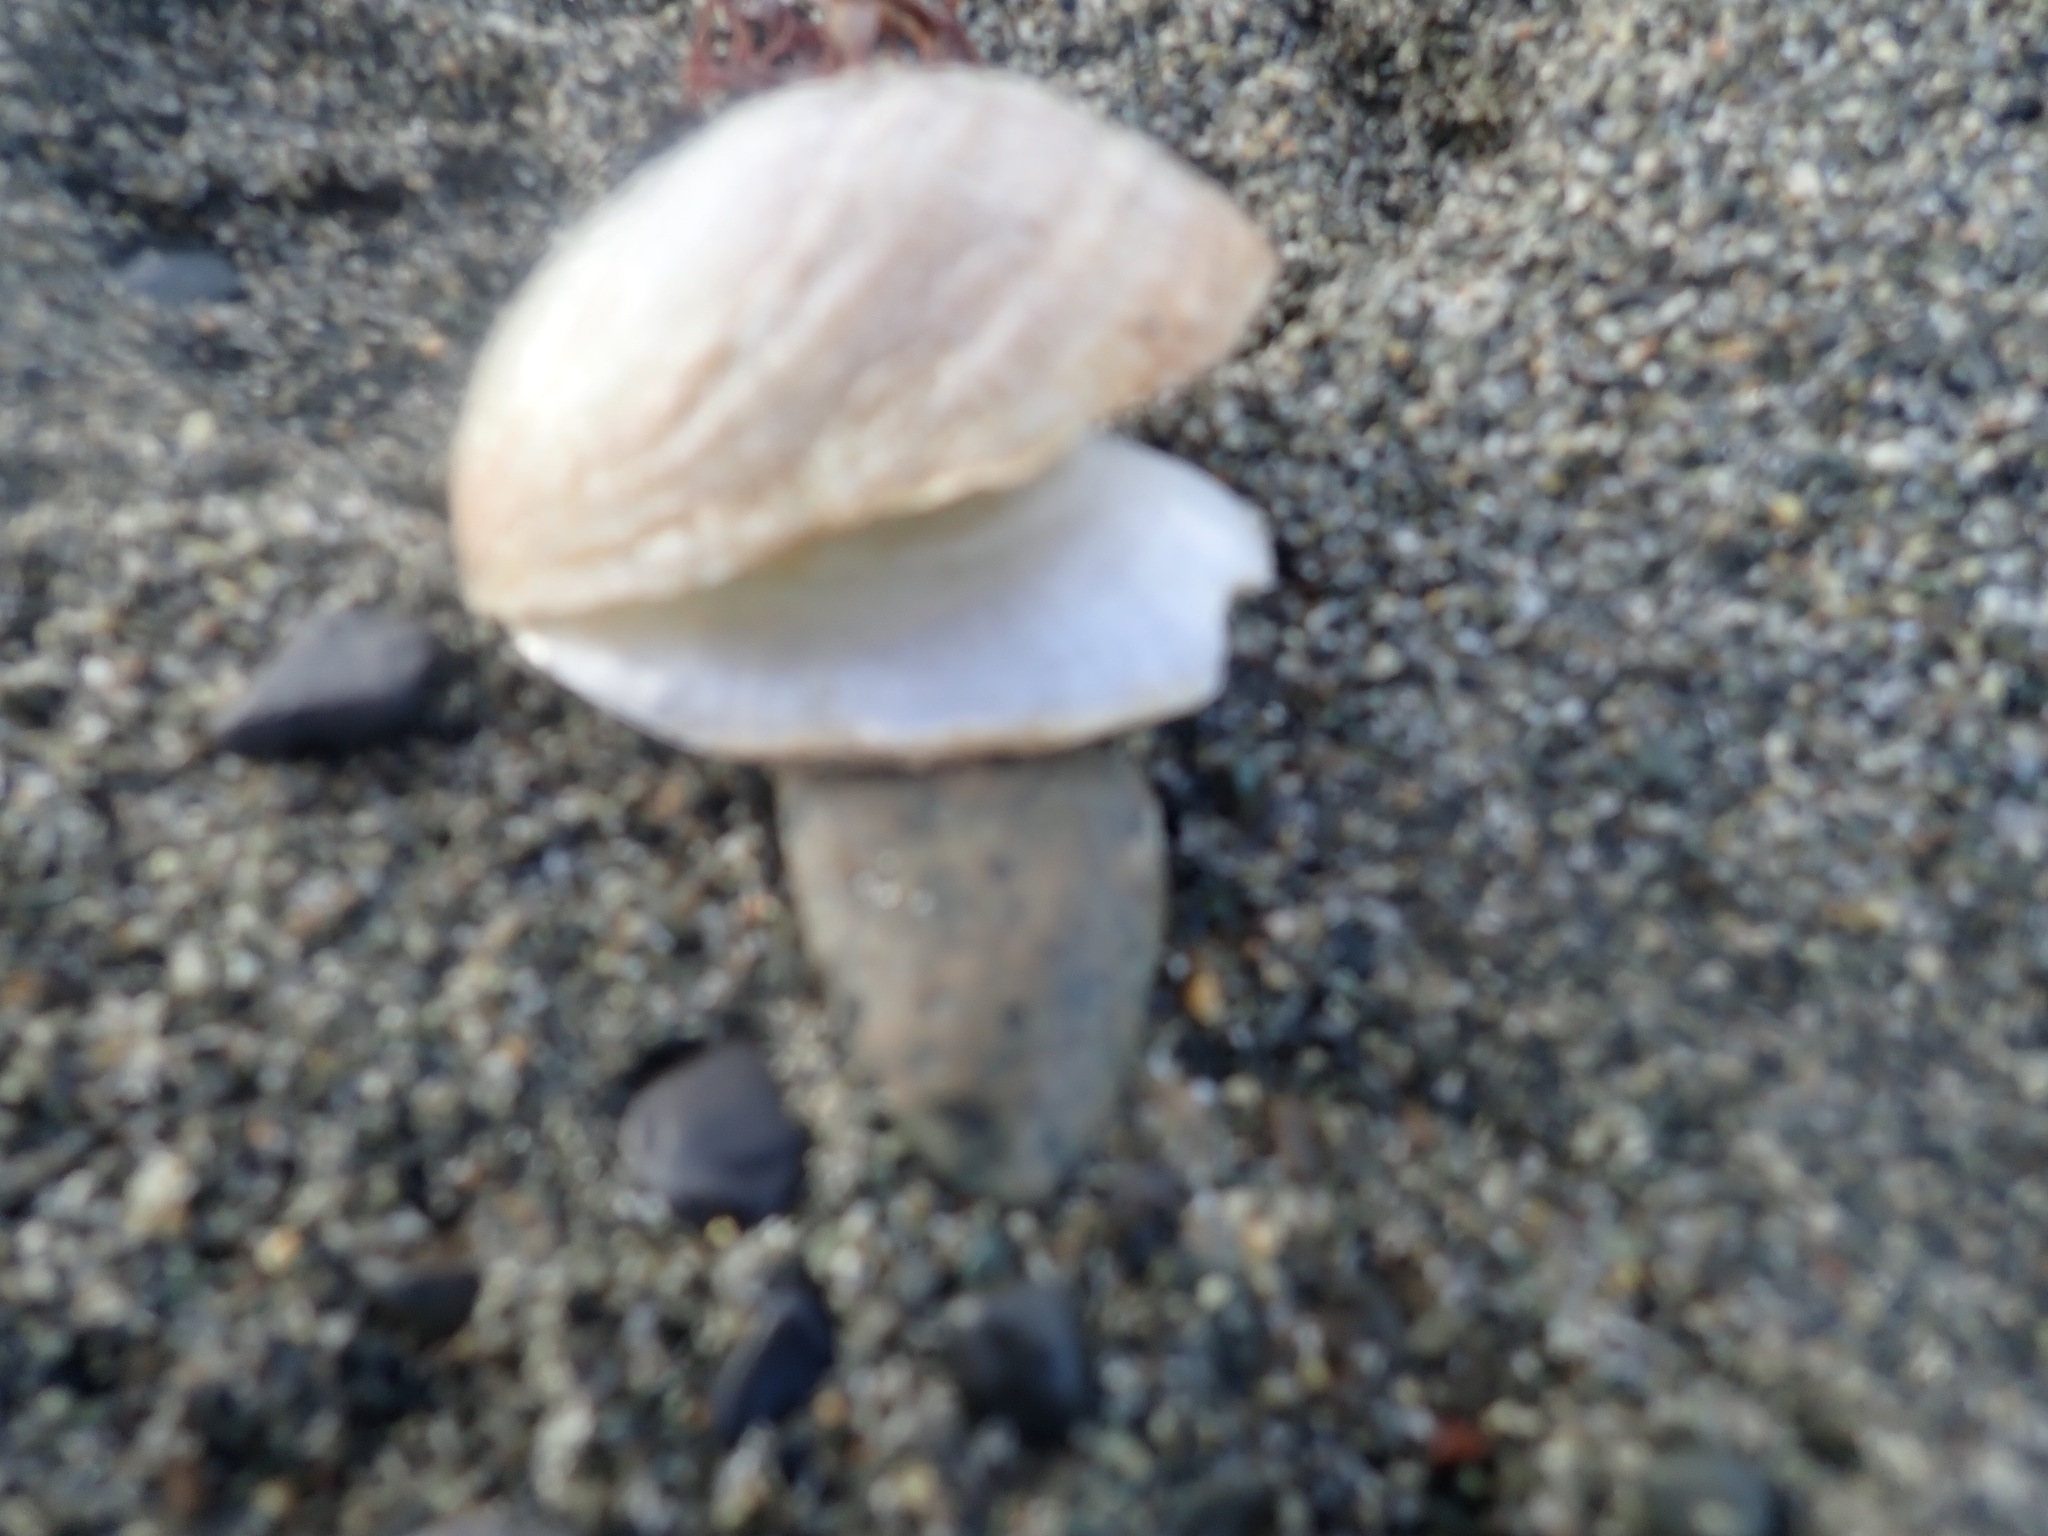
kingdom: Animalia
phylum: Mollusca
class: Bivalvia
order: Pectinida
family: Anomiidae
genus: Pododesmus
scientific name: Pododesmus macrochisma
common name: Alaska jingle
